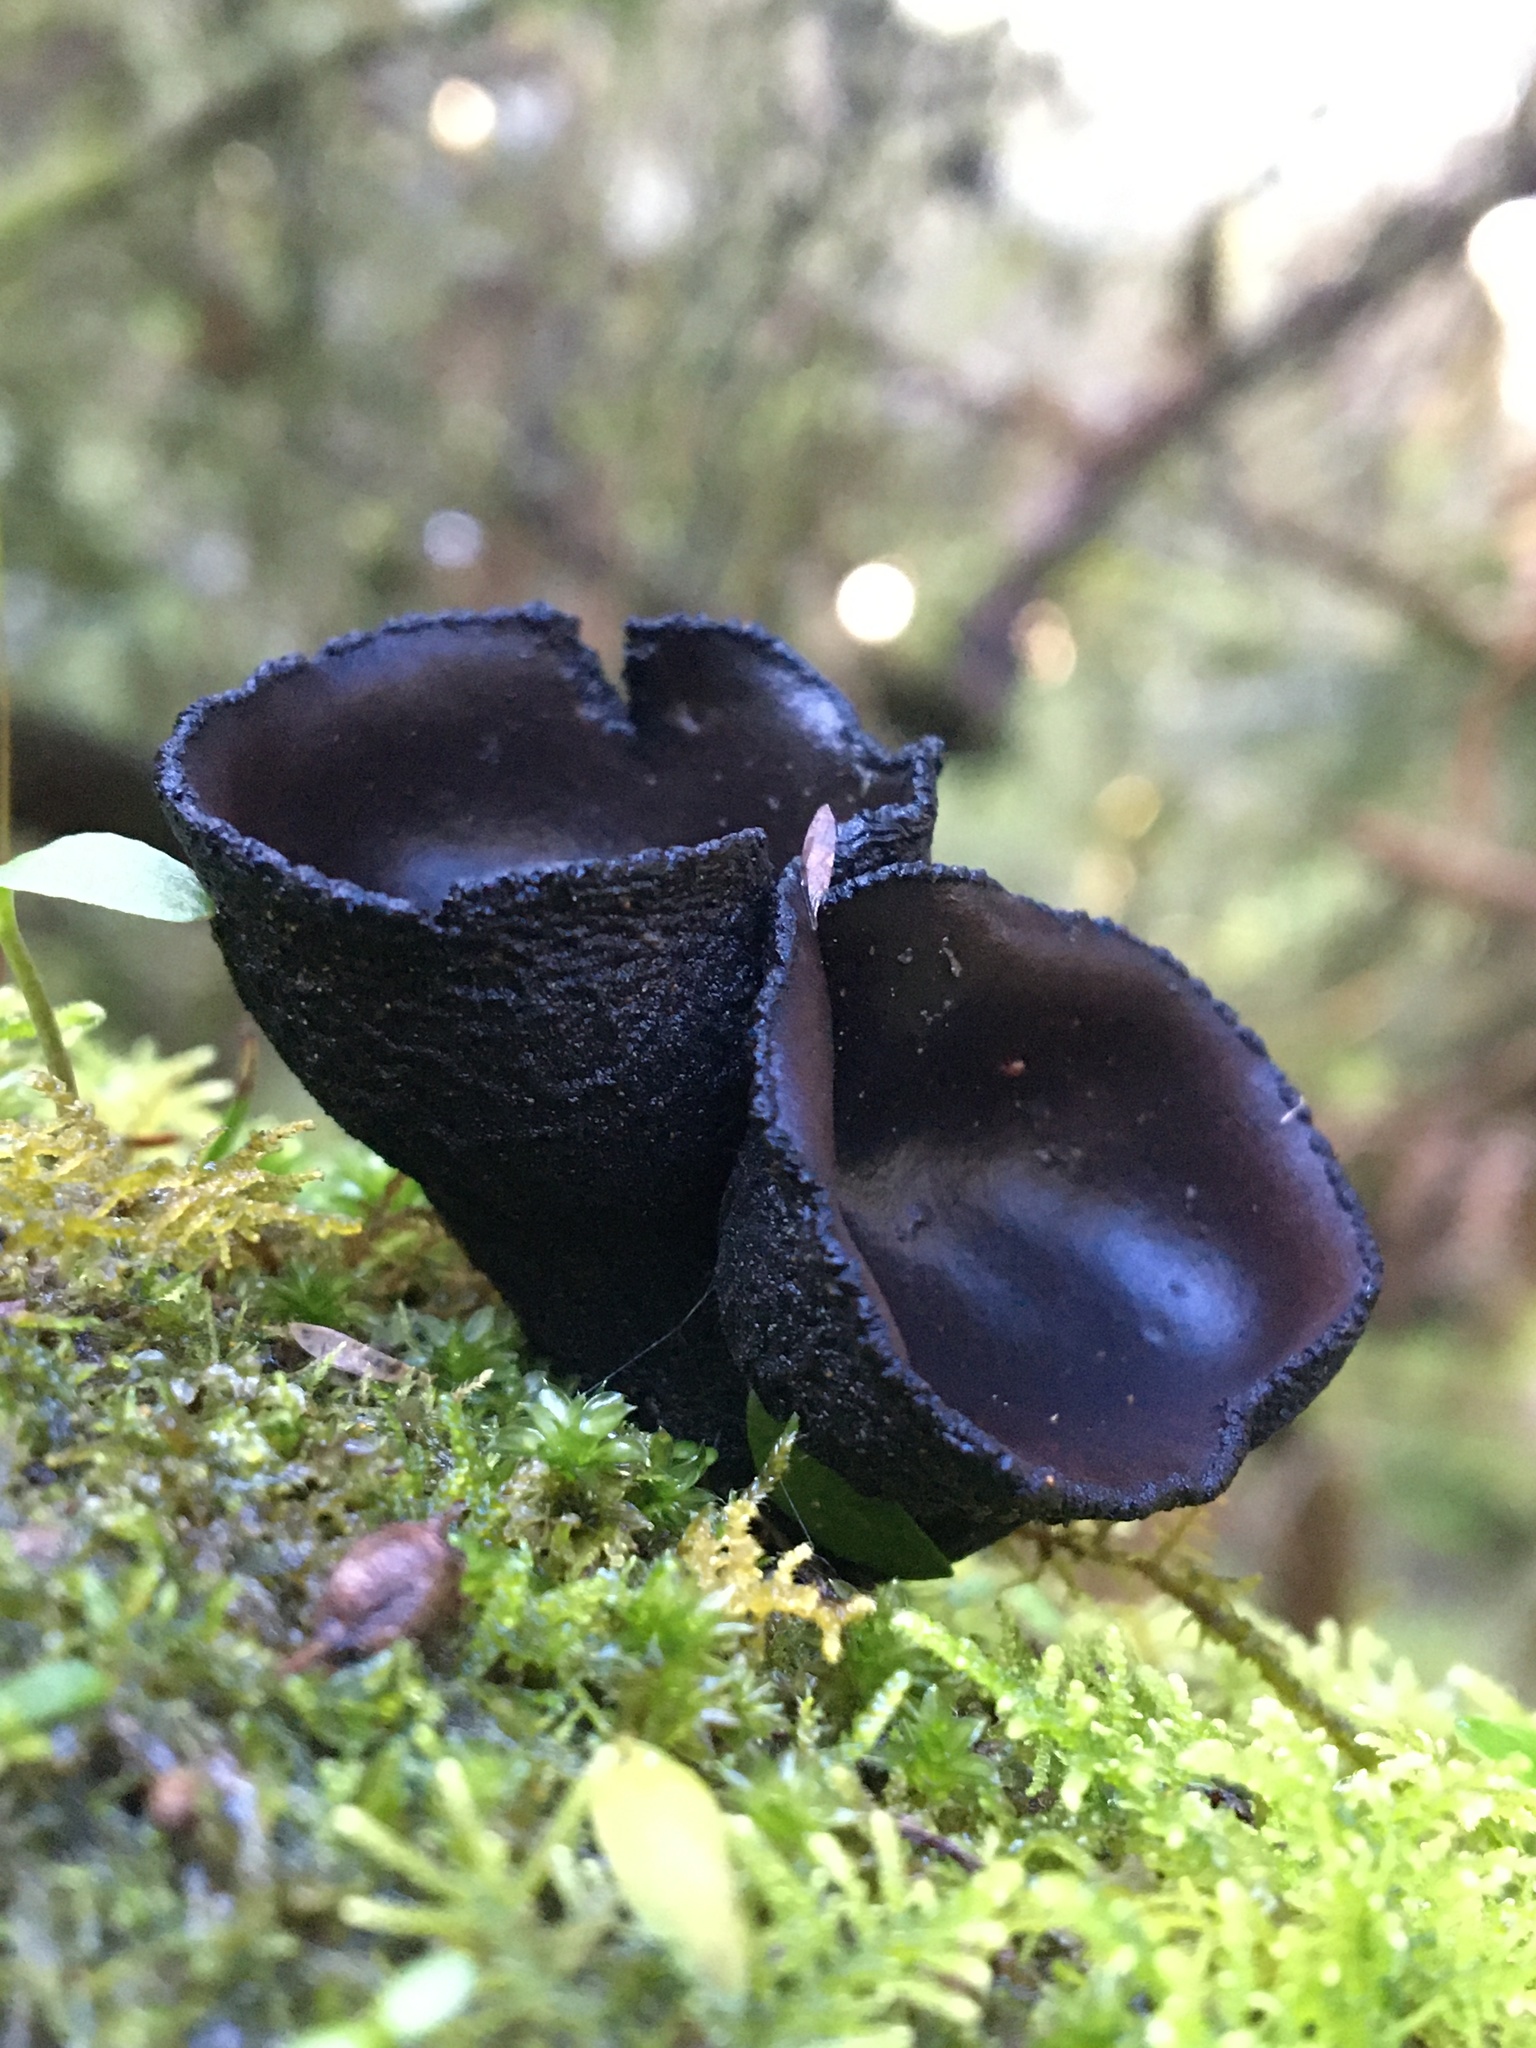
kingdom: Fungi
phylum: Ascomycota
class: Pezizomycetes
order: Pezizales
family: Sarcosomataceae
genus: Plectania
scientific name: Plectania campylospora
